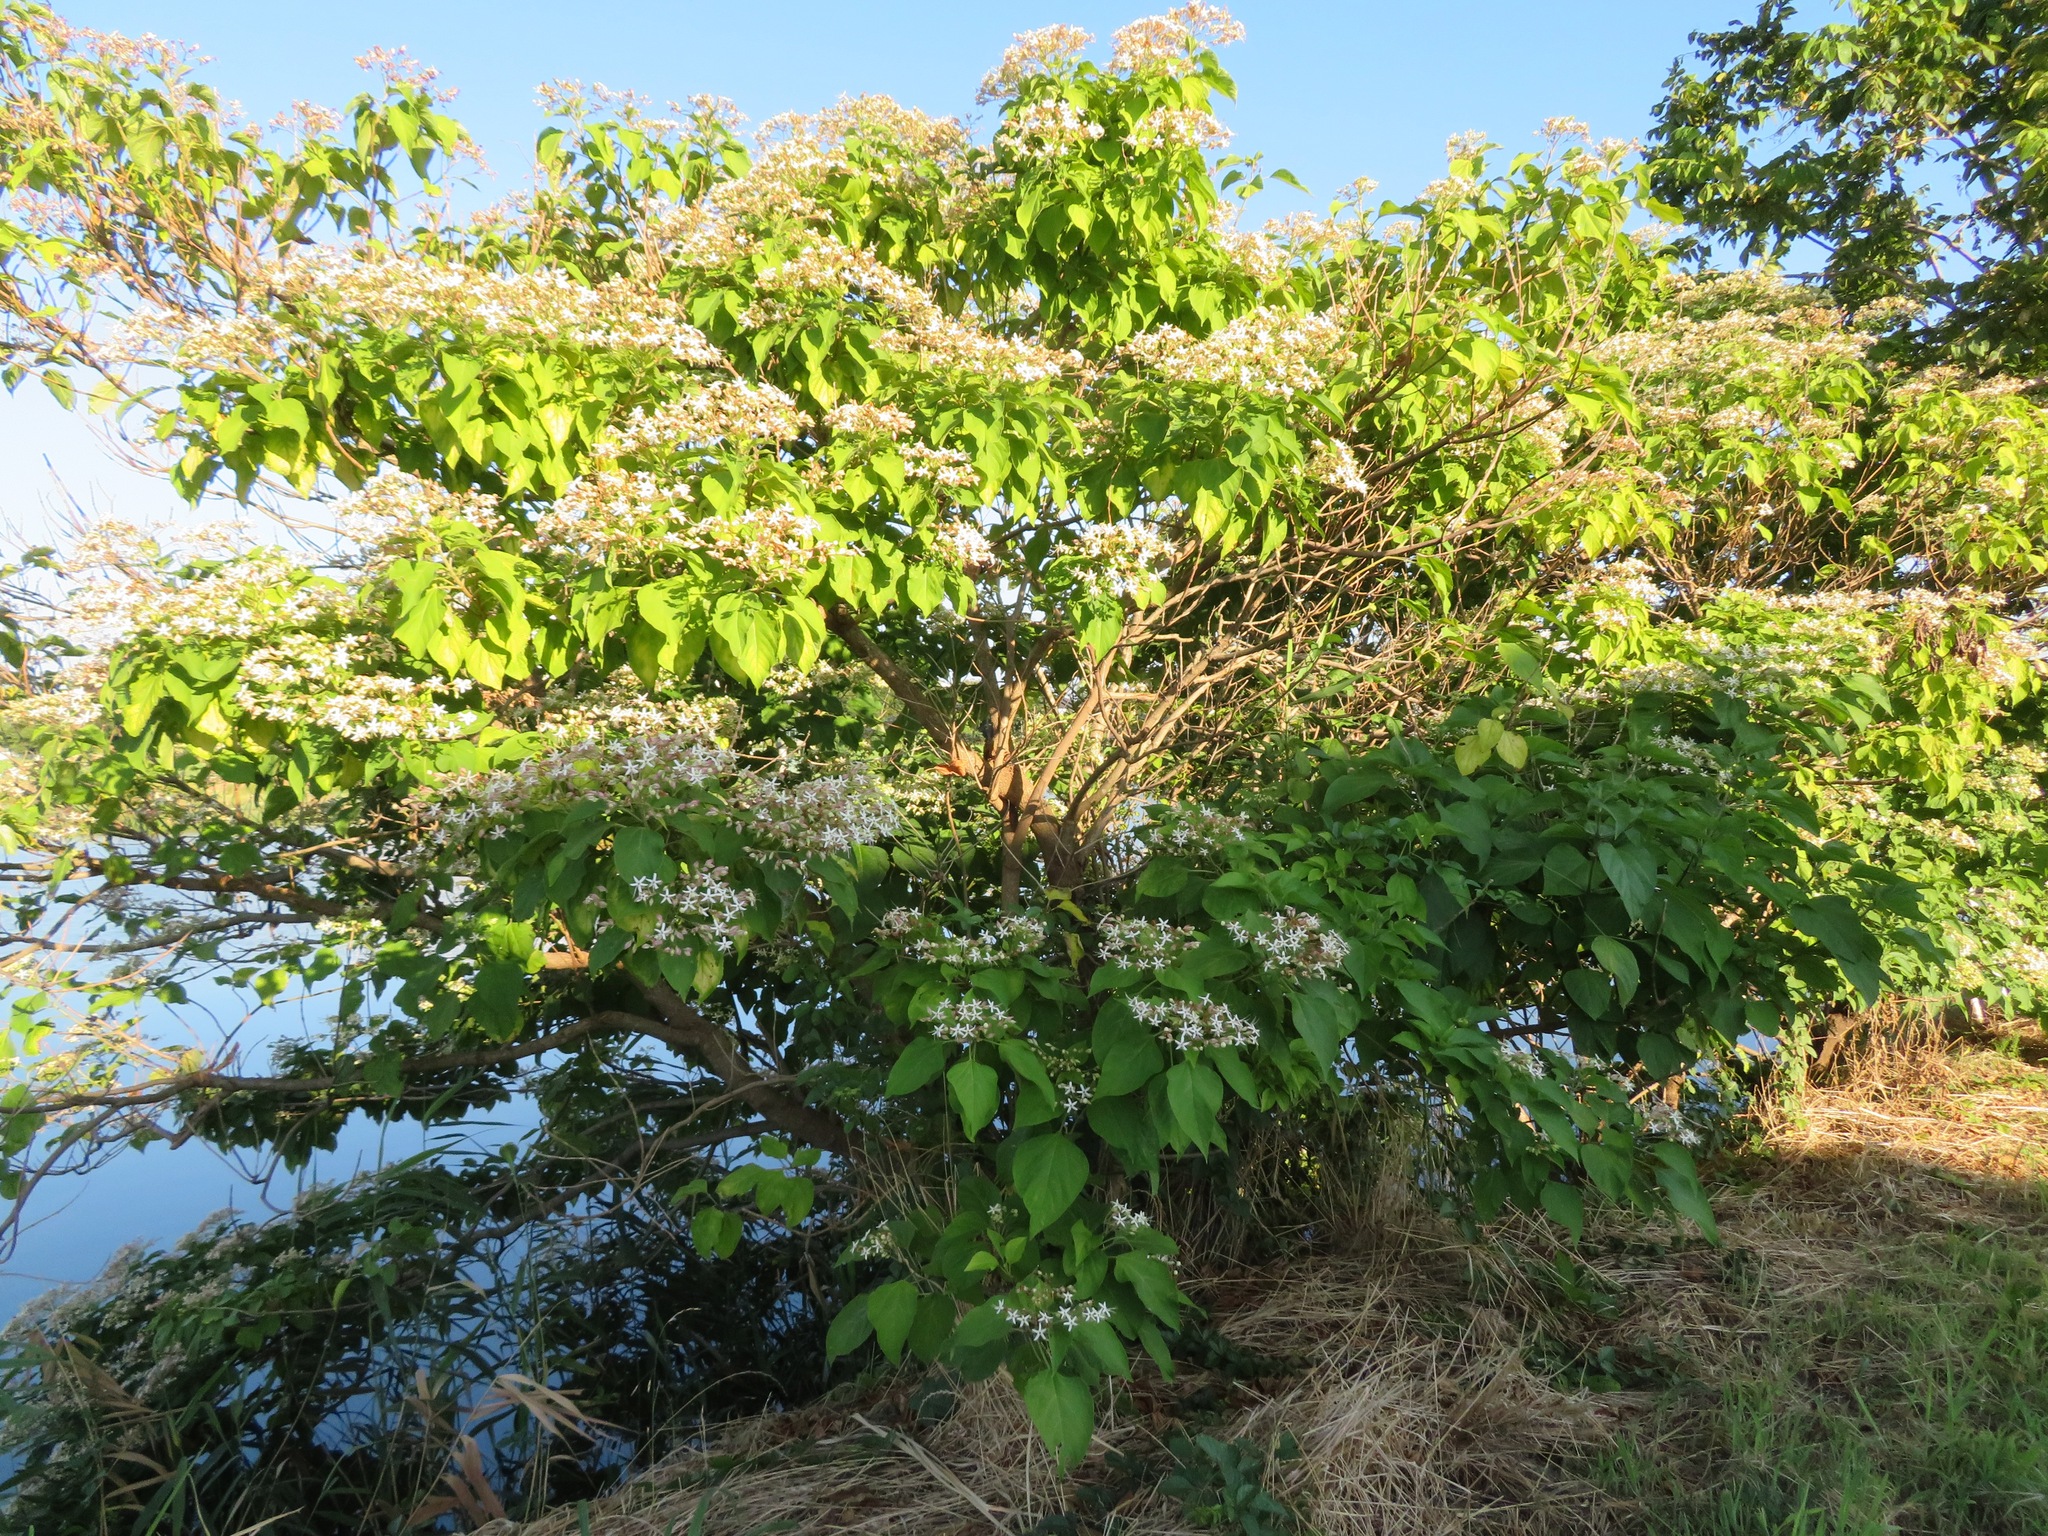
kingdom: Plantae
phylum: Tracheophyta
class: Magnoliopsida
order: Lamiales
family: Lamiaceae
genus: Clerodendrum
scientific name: Clerodendrum trichotomum
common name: Harlequin glorybower
